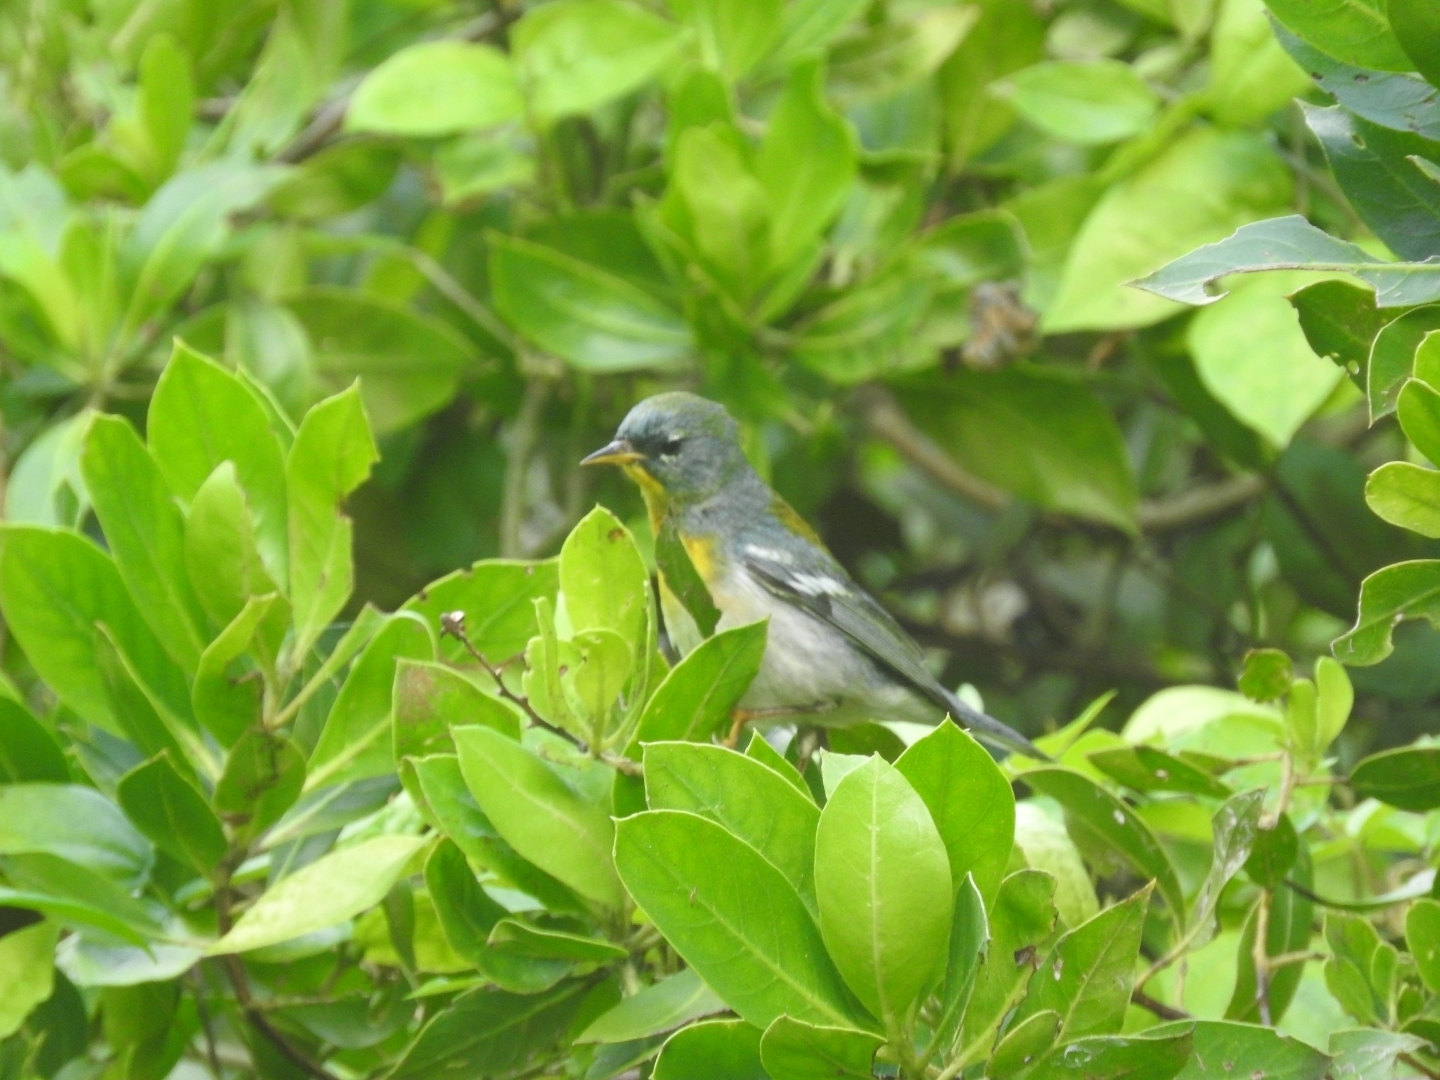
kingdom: Animalia
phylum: Chordata
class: Aves
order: Passeriformes
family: Parulidae
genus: Setophaga
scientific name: Setophaga americana
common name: Northern parula
